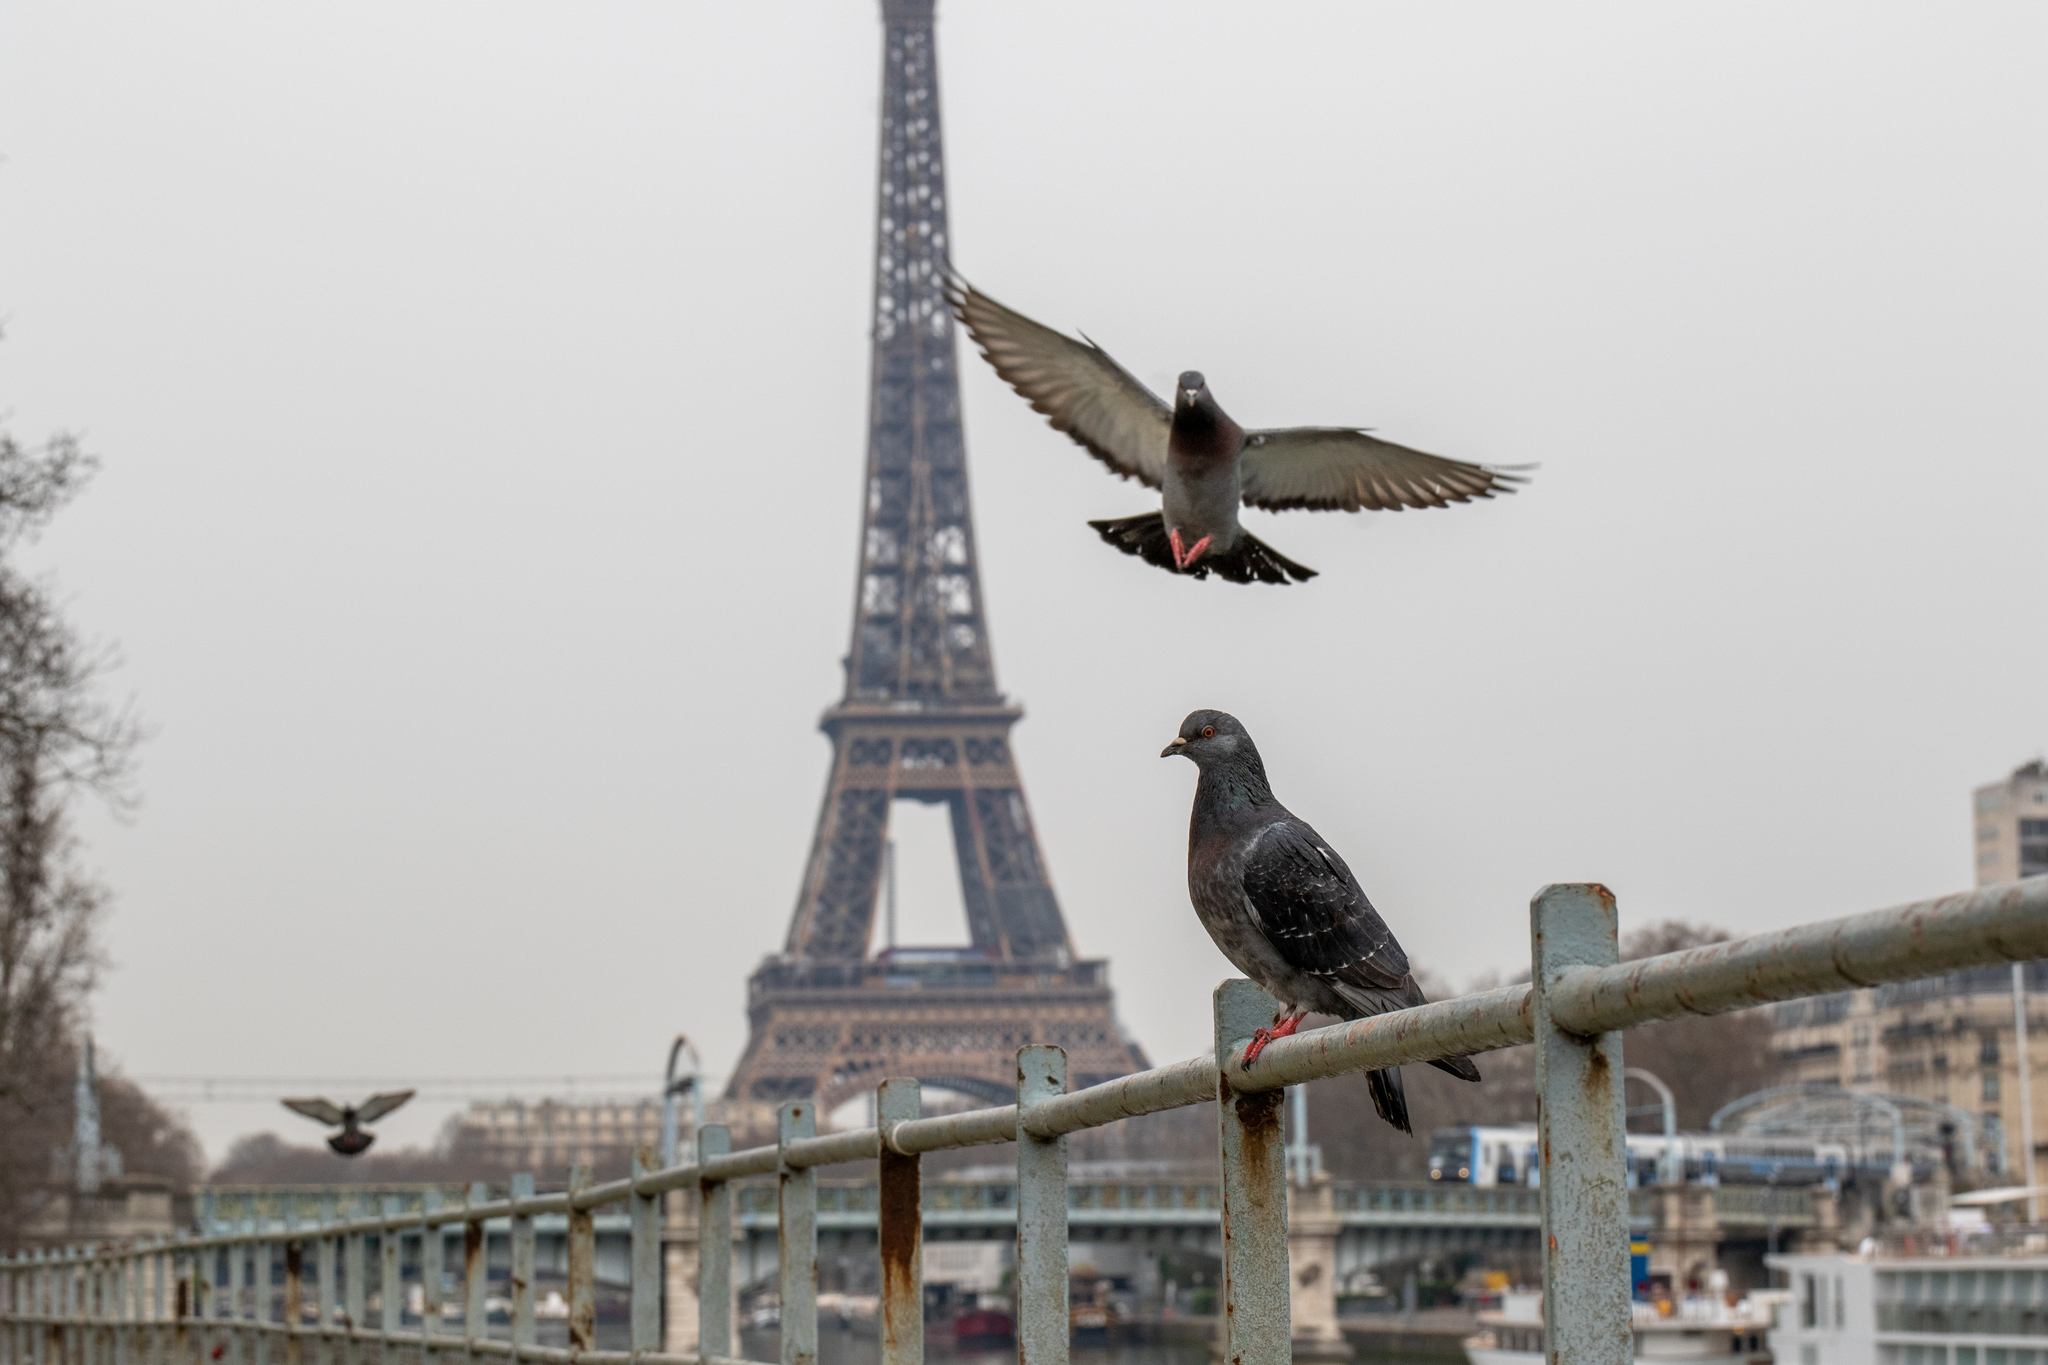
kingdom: Animalia
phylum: Chordata
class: Aves
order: Columbiformes
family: Columbidae
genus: Columba
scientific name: Columba livia
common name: Rock pigeon
